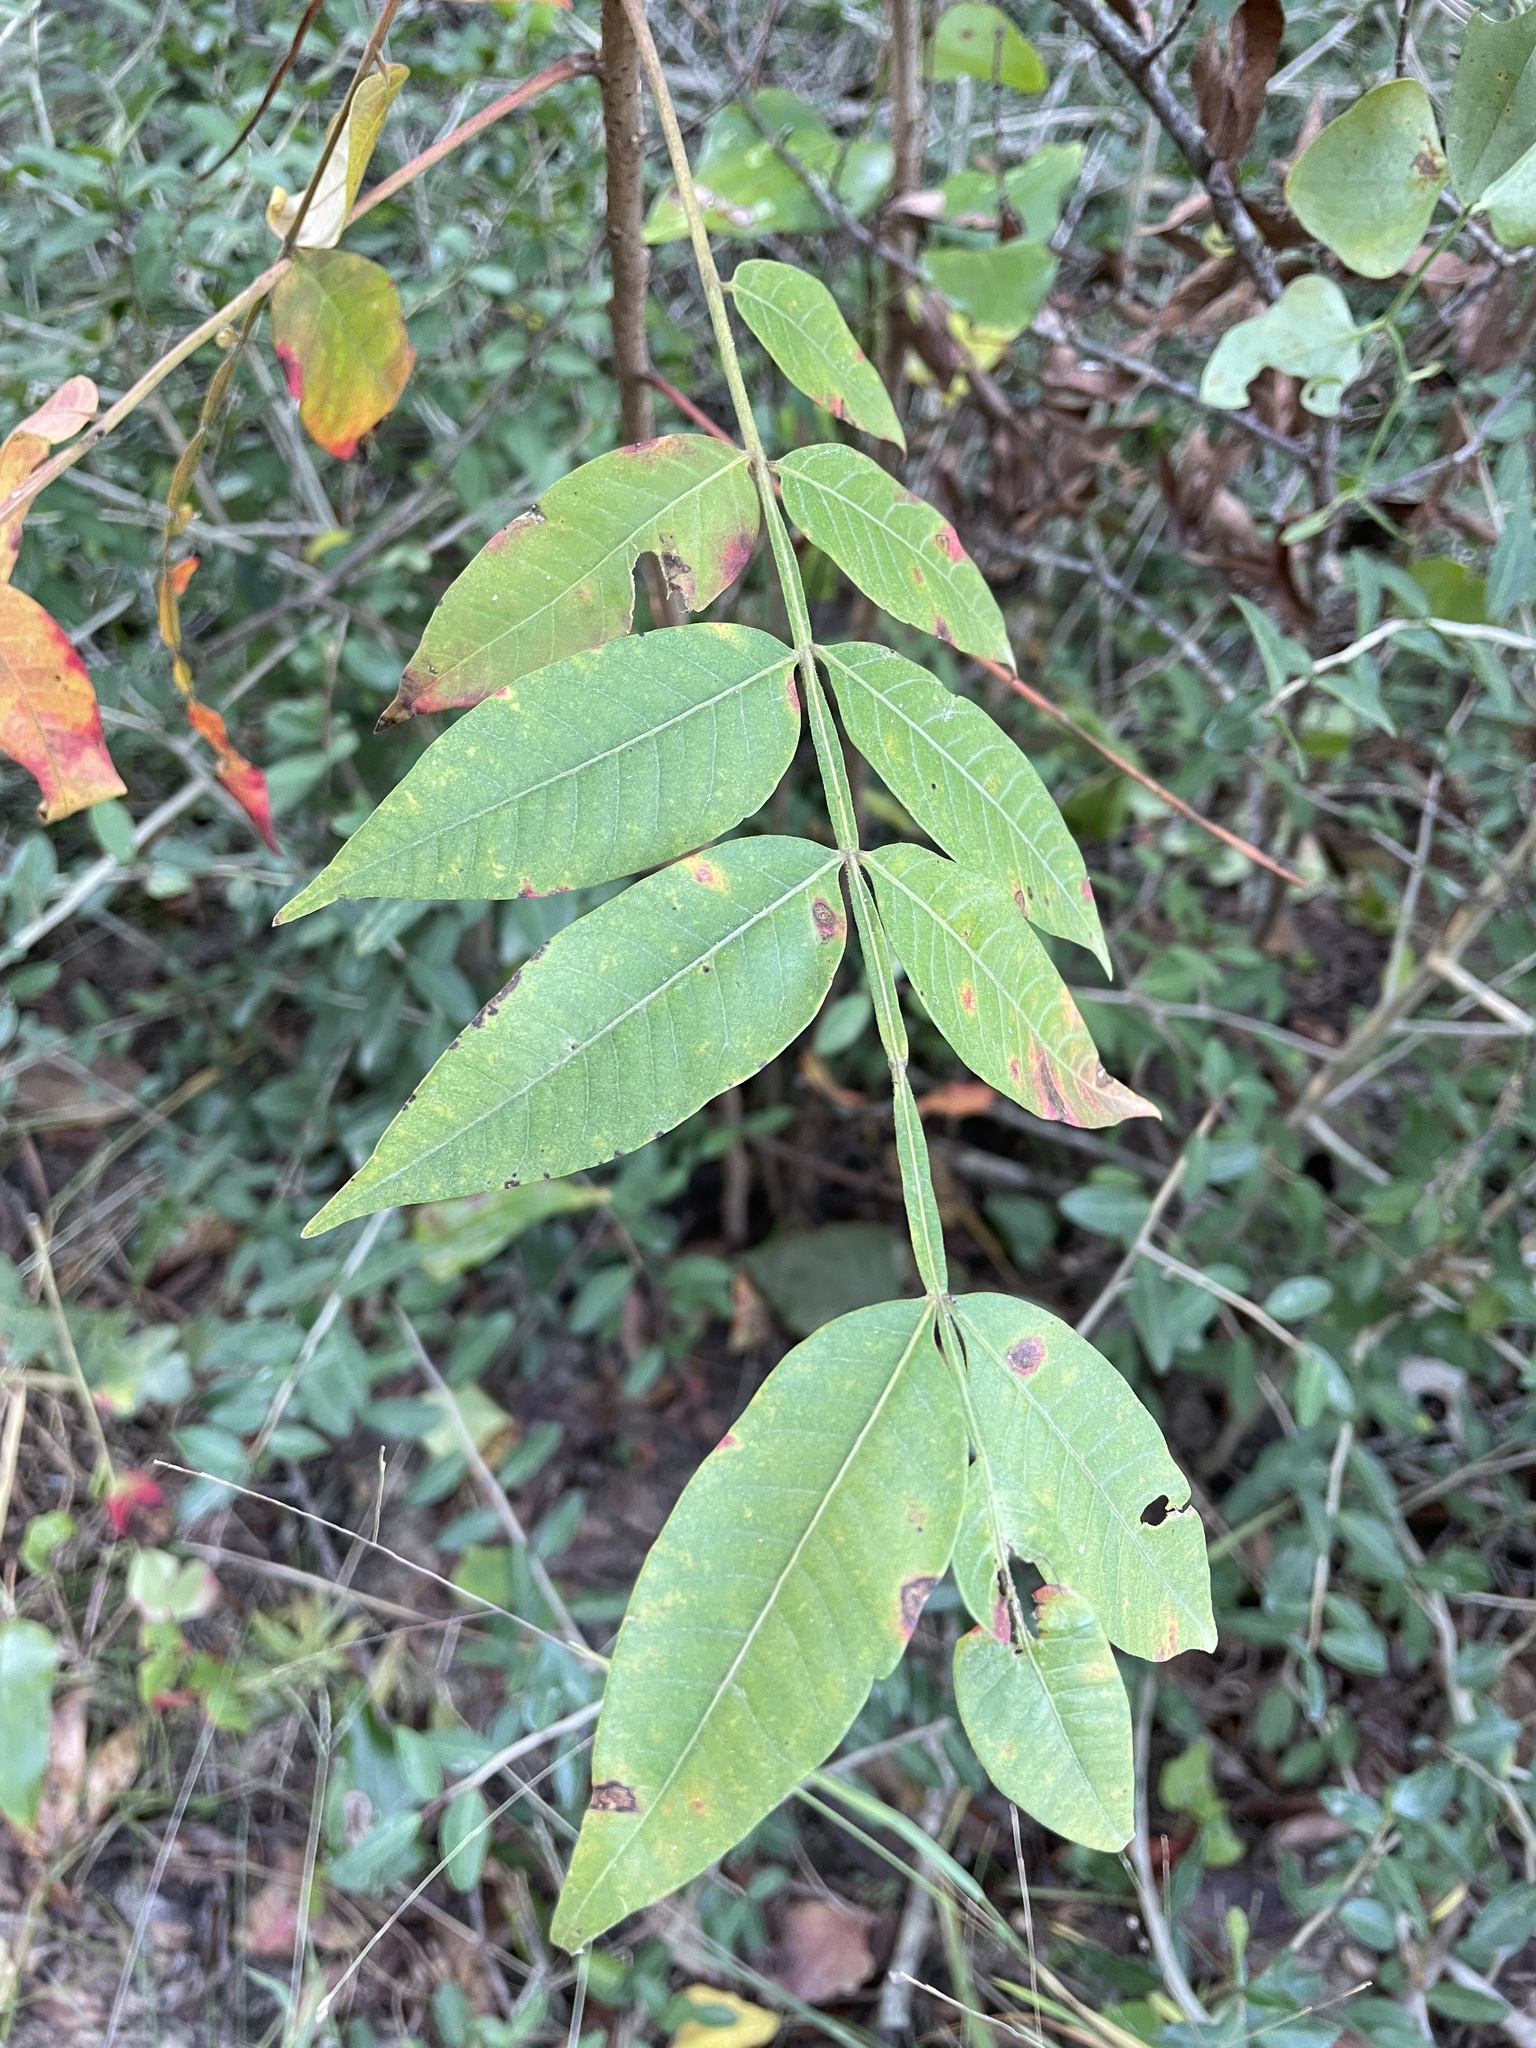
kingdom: Plantae
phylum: Tracheophyta
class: Magnoliopsida
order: Sapindales
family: Anacardiaceae
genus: Rhus
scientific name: Rhus copallina
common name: Shining sumac
